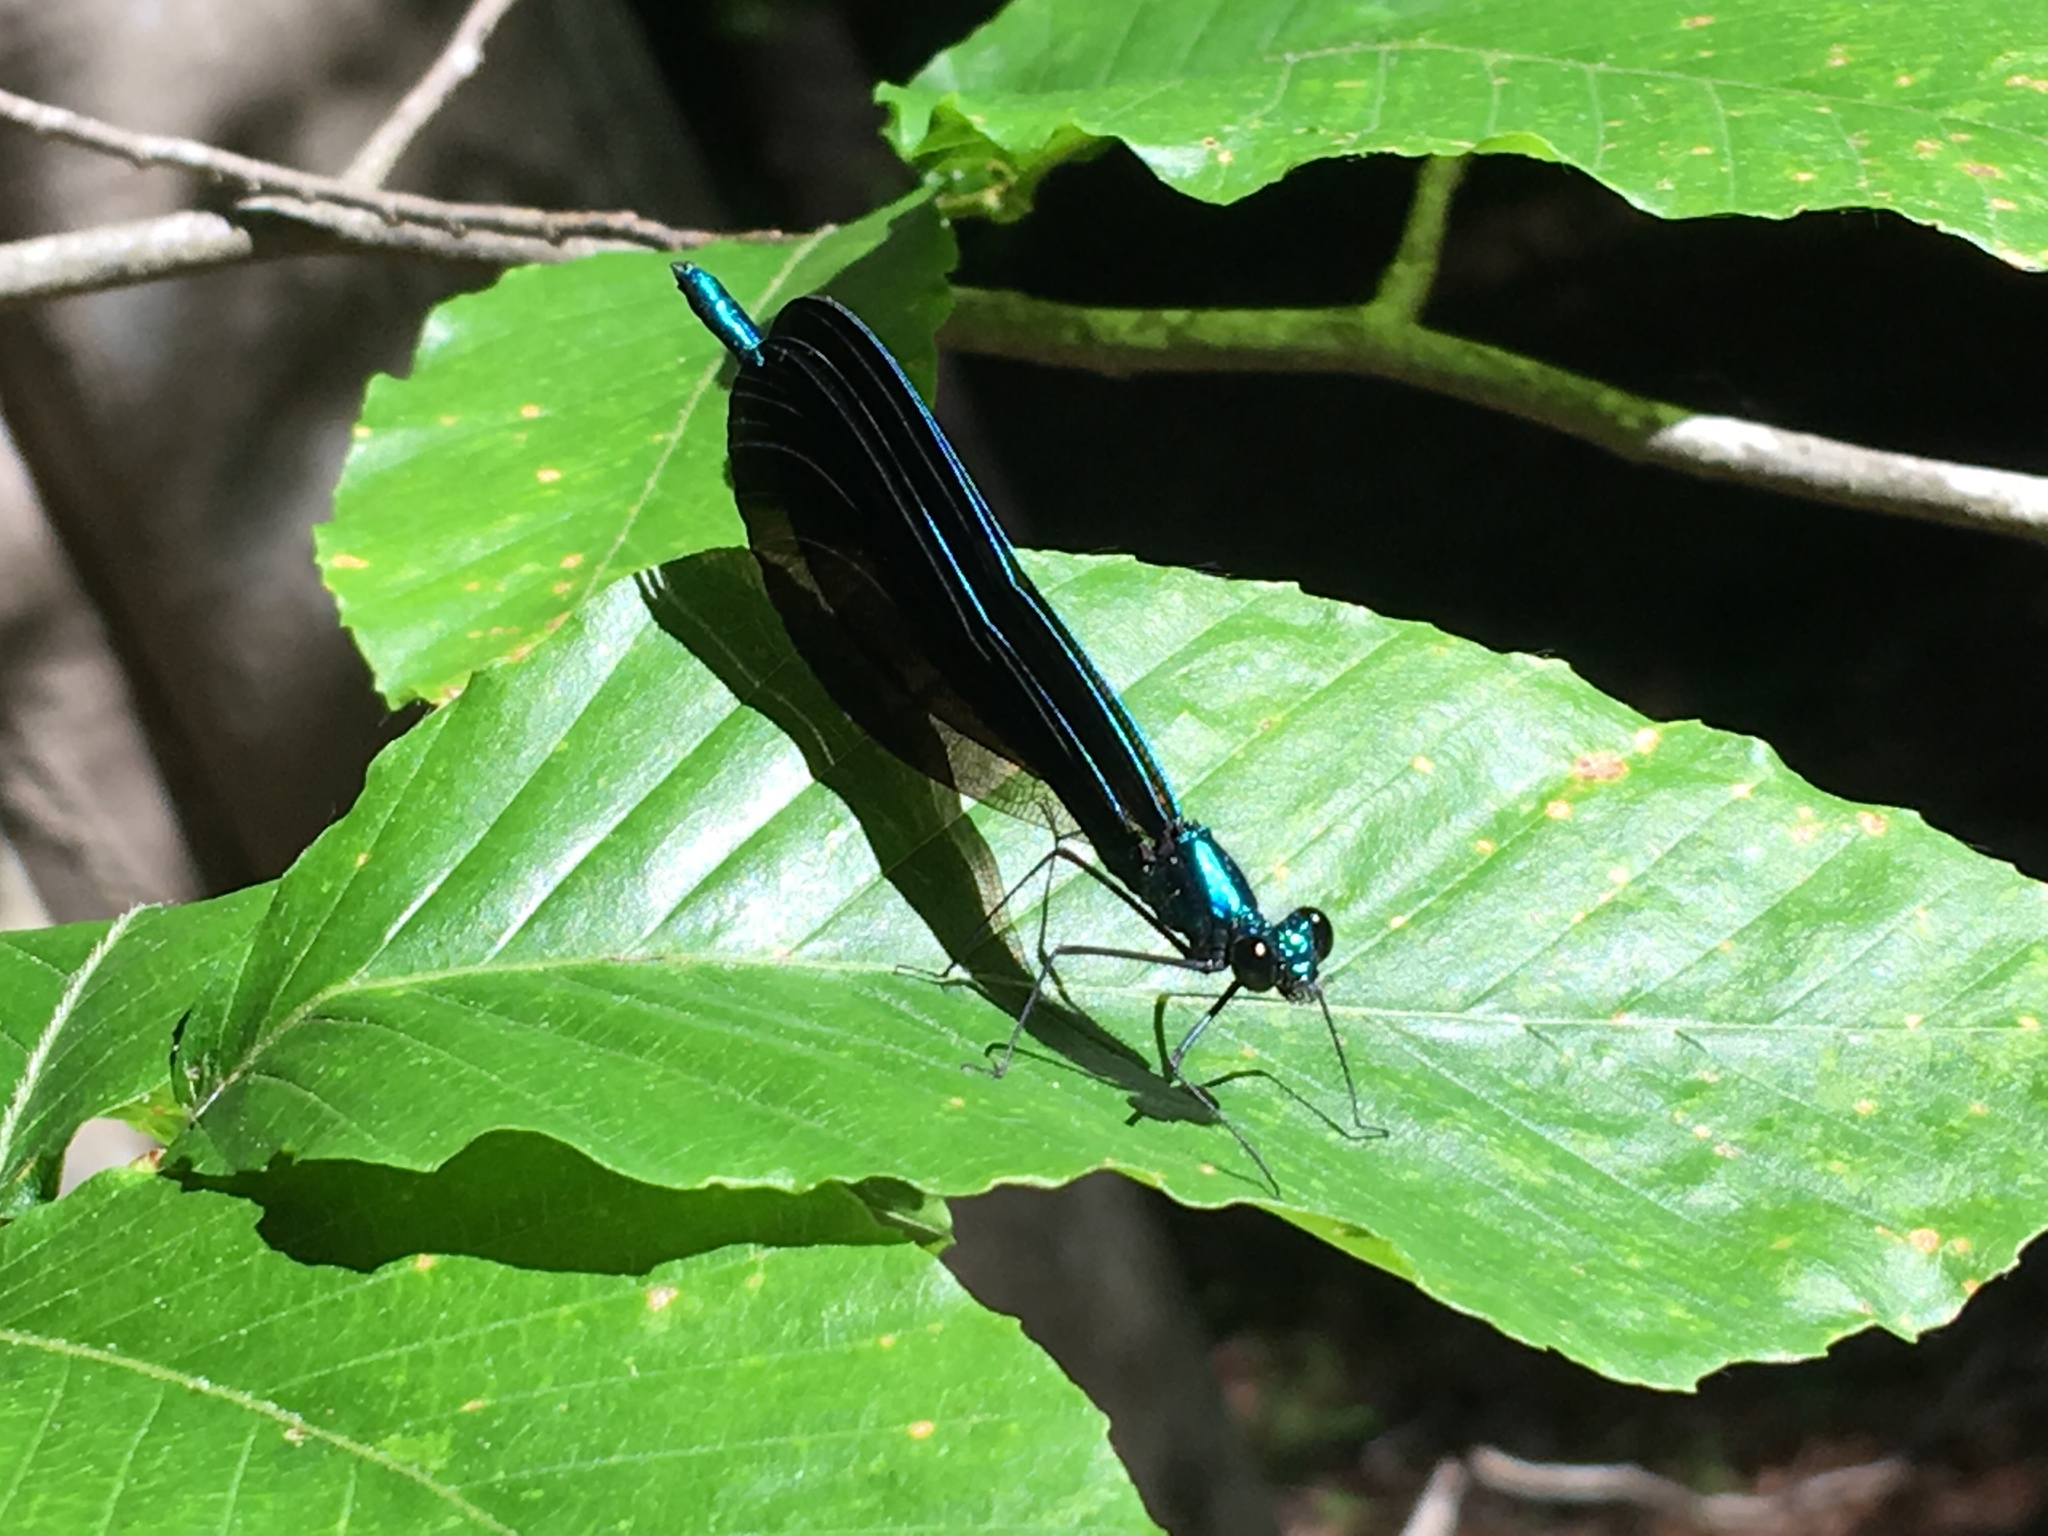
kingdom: Animalia
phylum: Arthropoda
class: Insecta
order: Odonata
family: Calopterygidae
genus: Calopteryx
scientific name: Calopteryx maculata
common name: Ebony jewelwing
